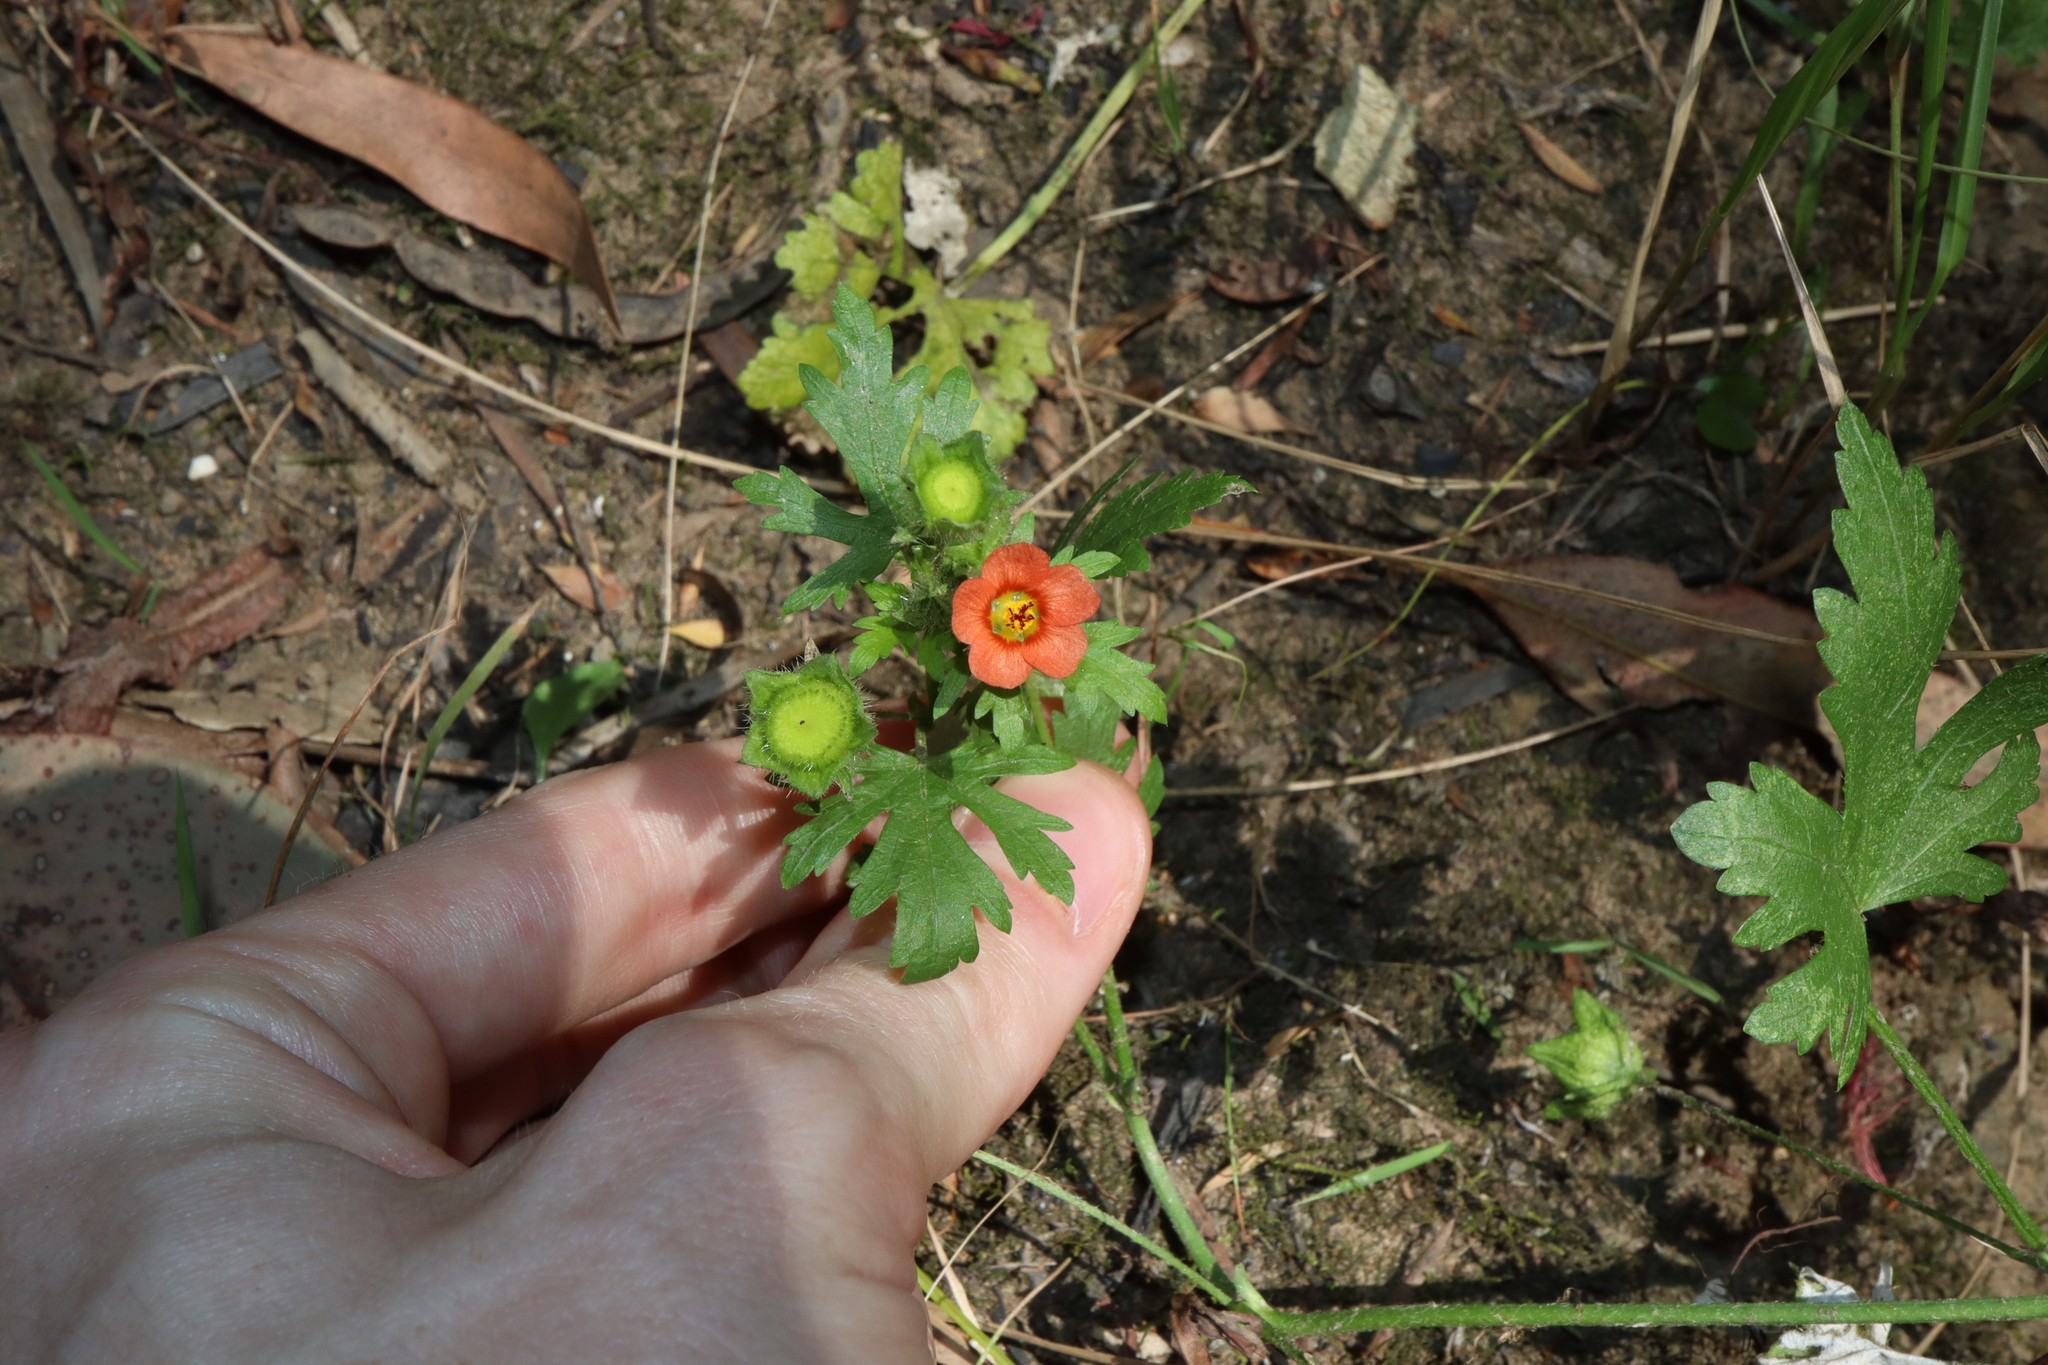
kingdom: Plantae
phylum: Tracheophyta
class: Magnoliopsida
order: Malvales
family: Malvaceae
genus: Modiola
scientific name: Modiola caroliniana
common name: Carolina bristlemallow
